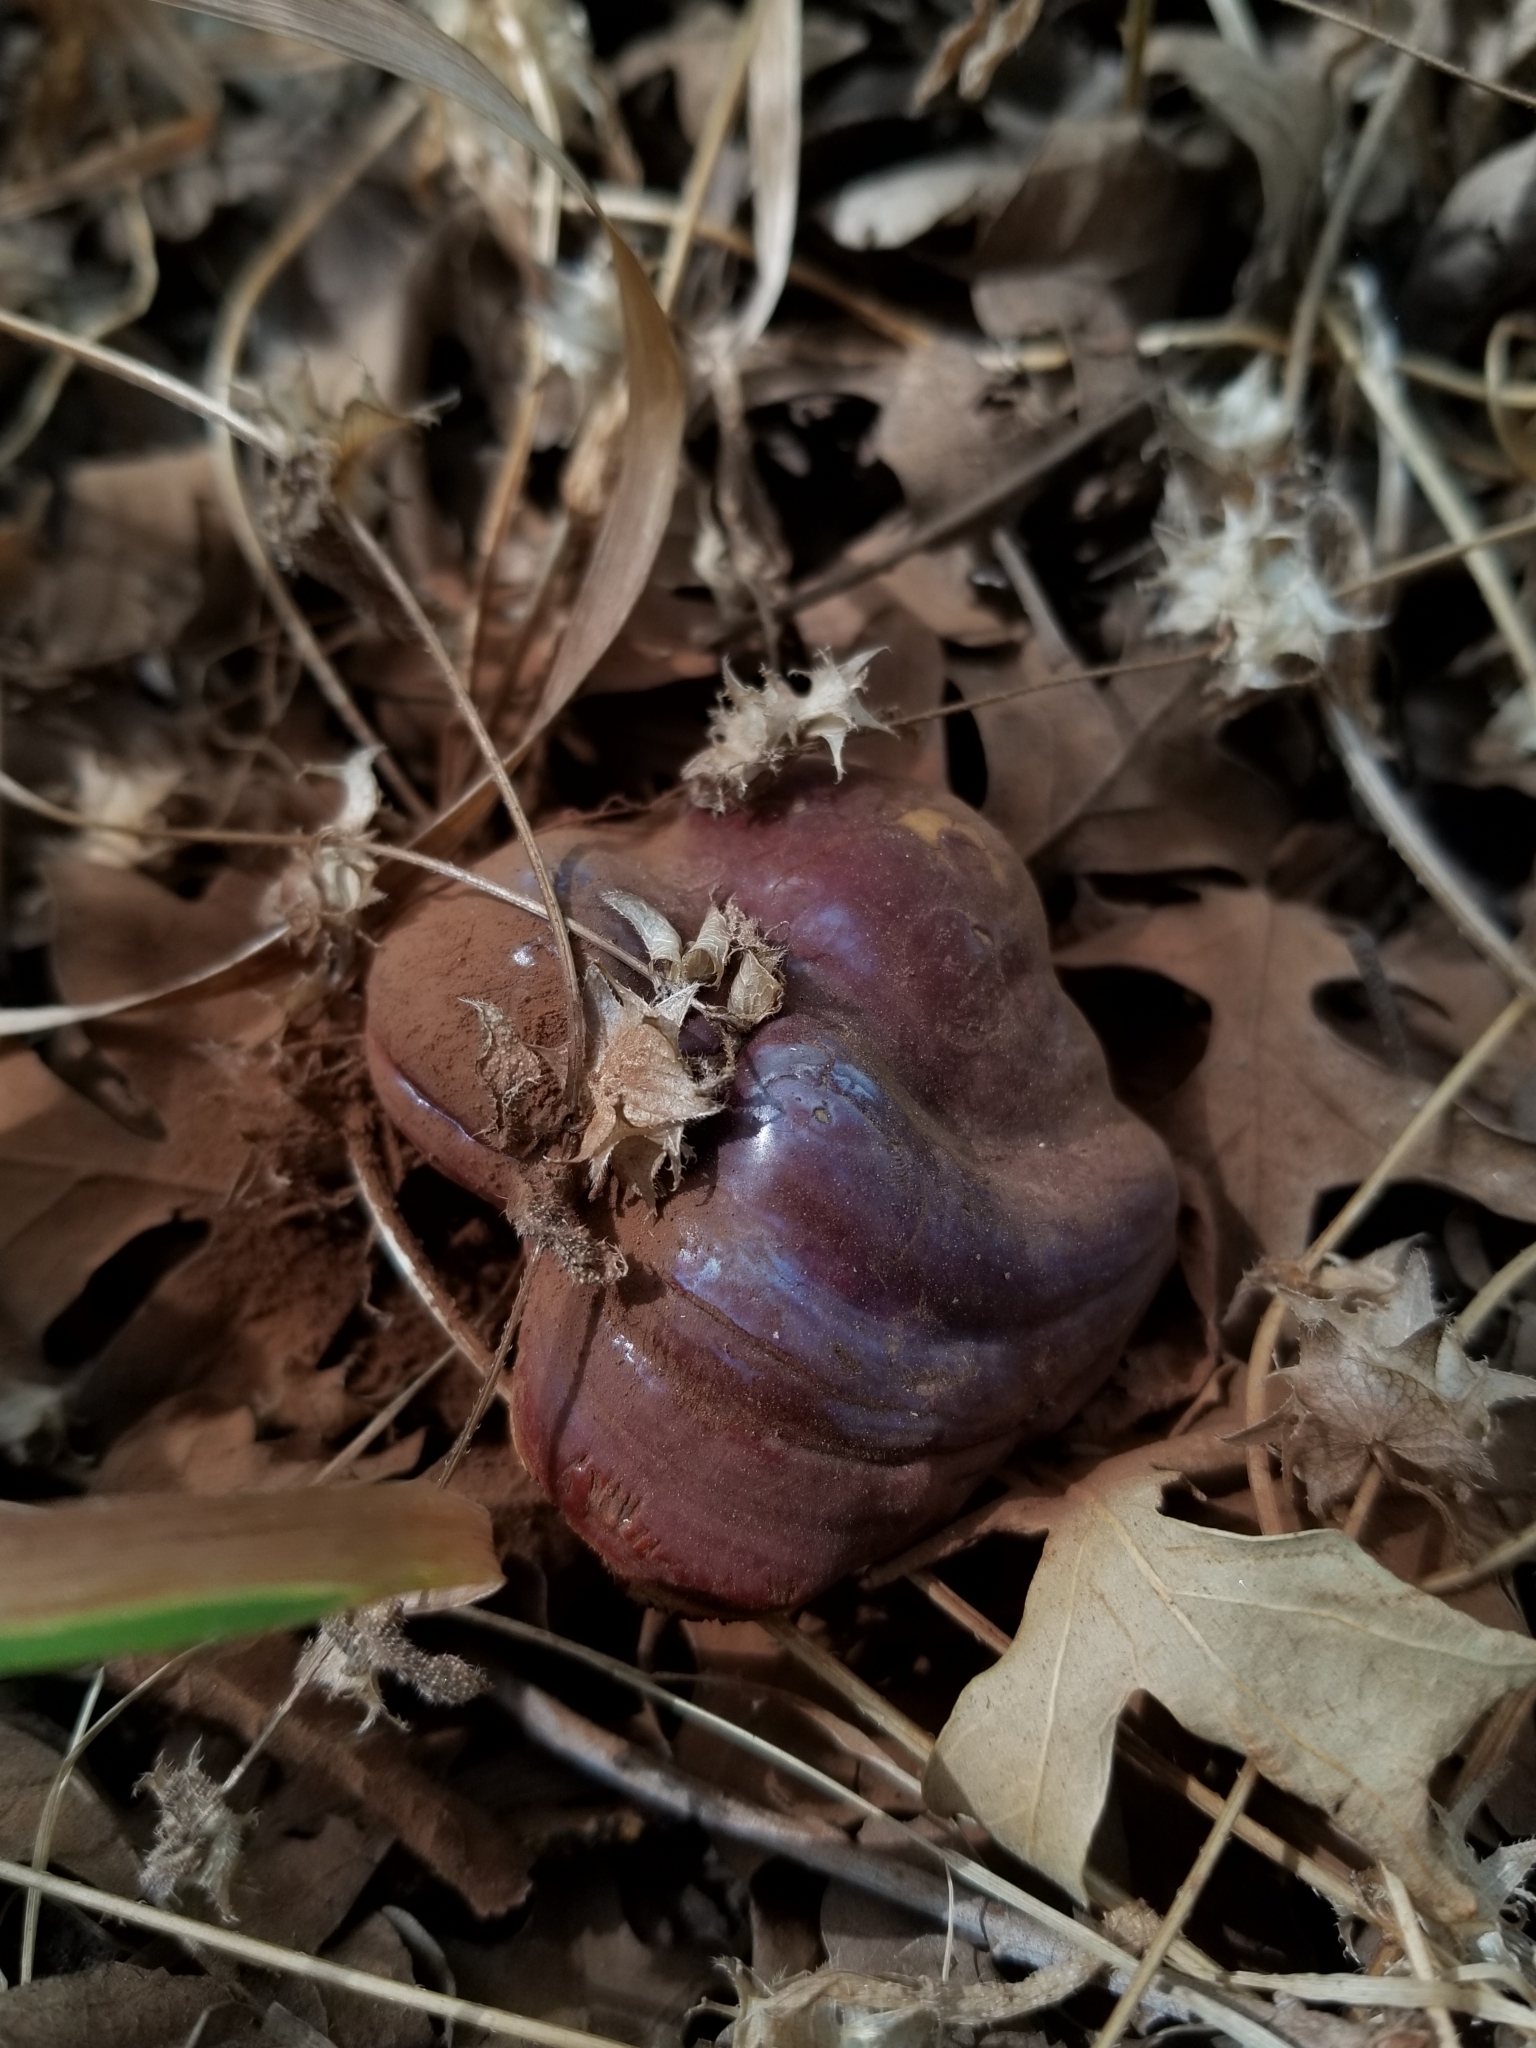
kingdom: Fungi
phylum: Basidiomycota
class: Agaricomycetes
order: Polyporales
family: Polyporaceae
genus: Ganoderma
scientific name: Ganoderma lucidum
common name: Lacquered bracket
